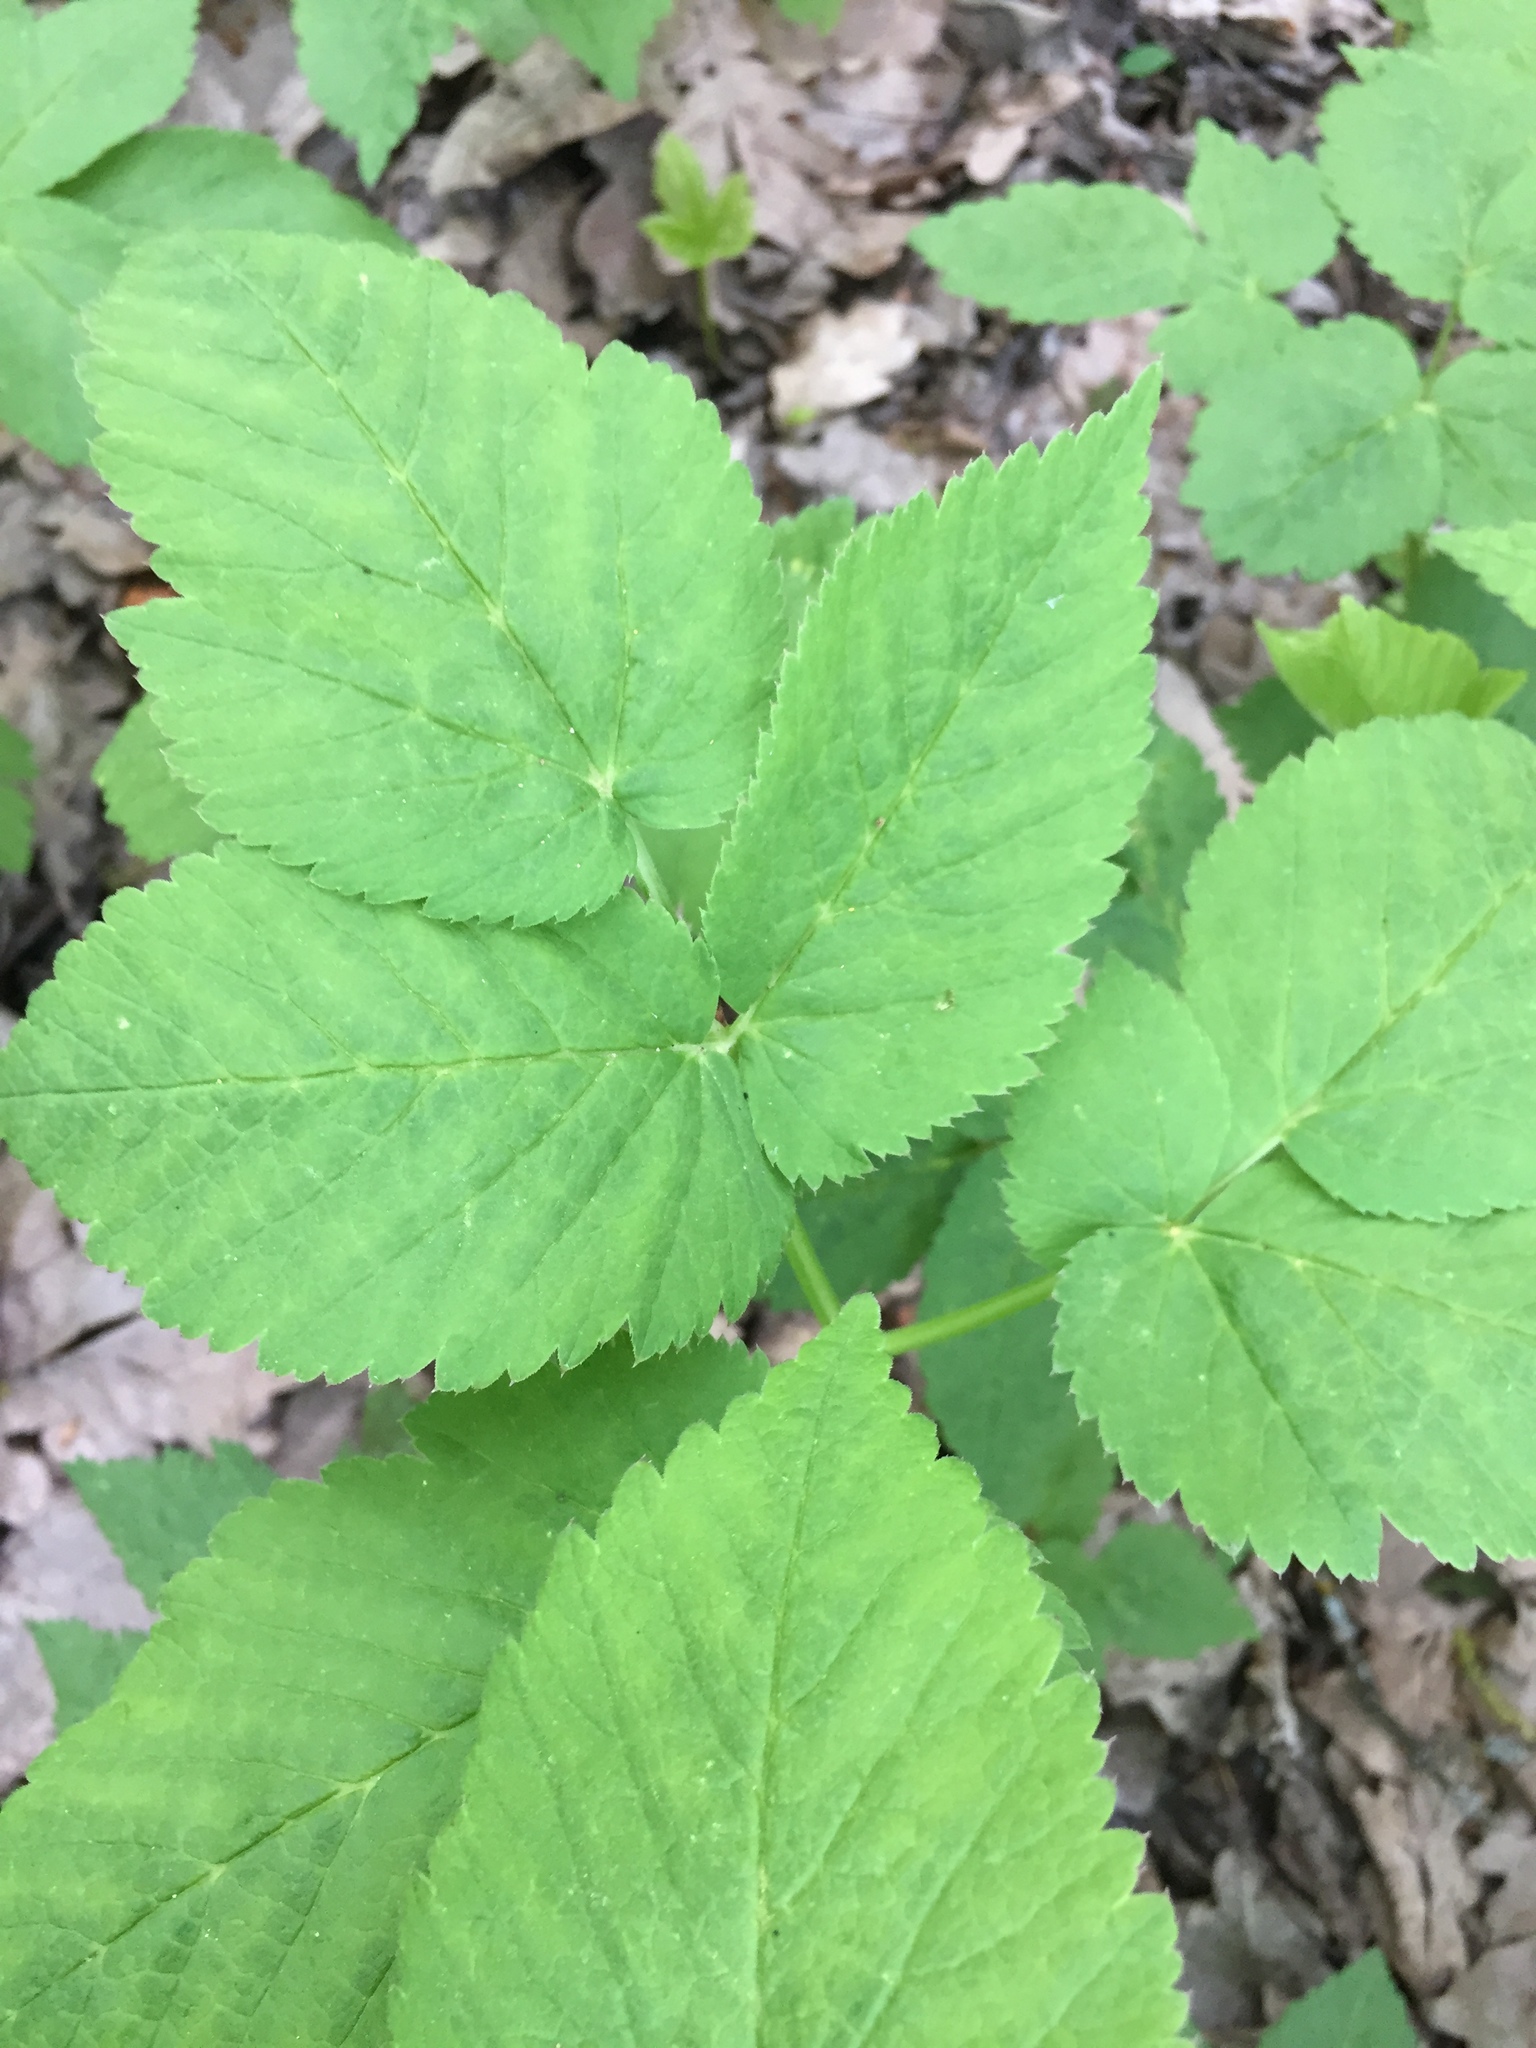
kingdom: Plantae
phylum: Tracheophyta
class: Magnoliopsida
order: Apiales
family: Apiaceae
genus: Aegopodium
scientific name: Aegopodium podagraria
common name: Ground-elder
